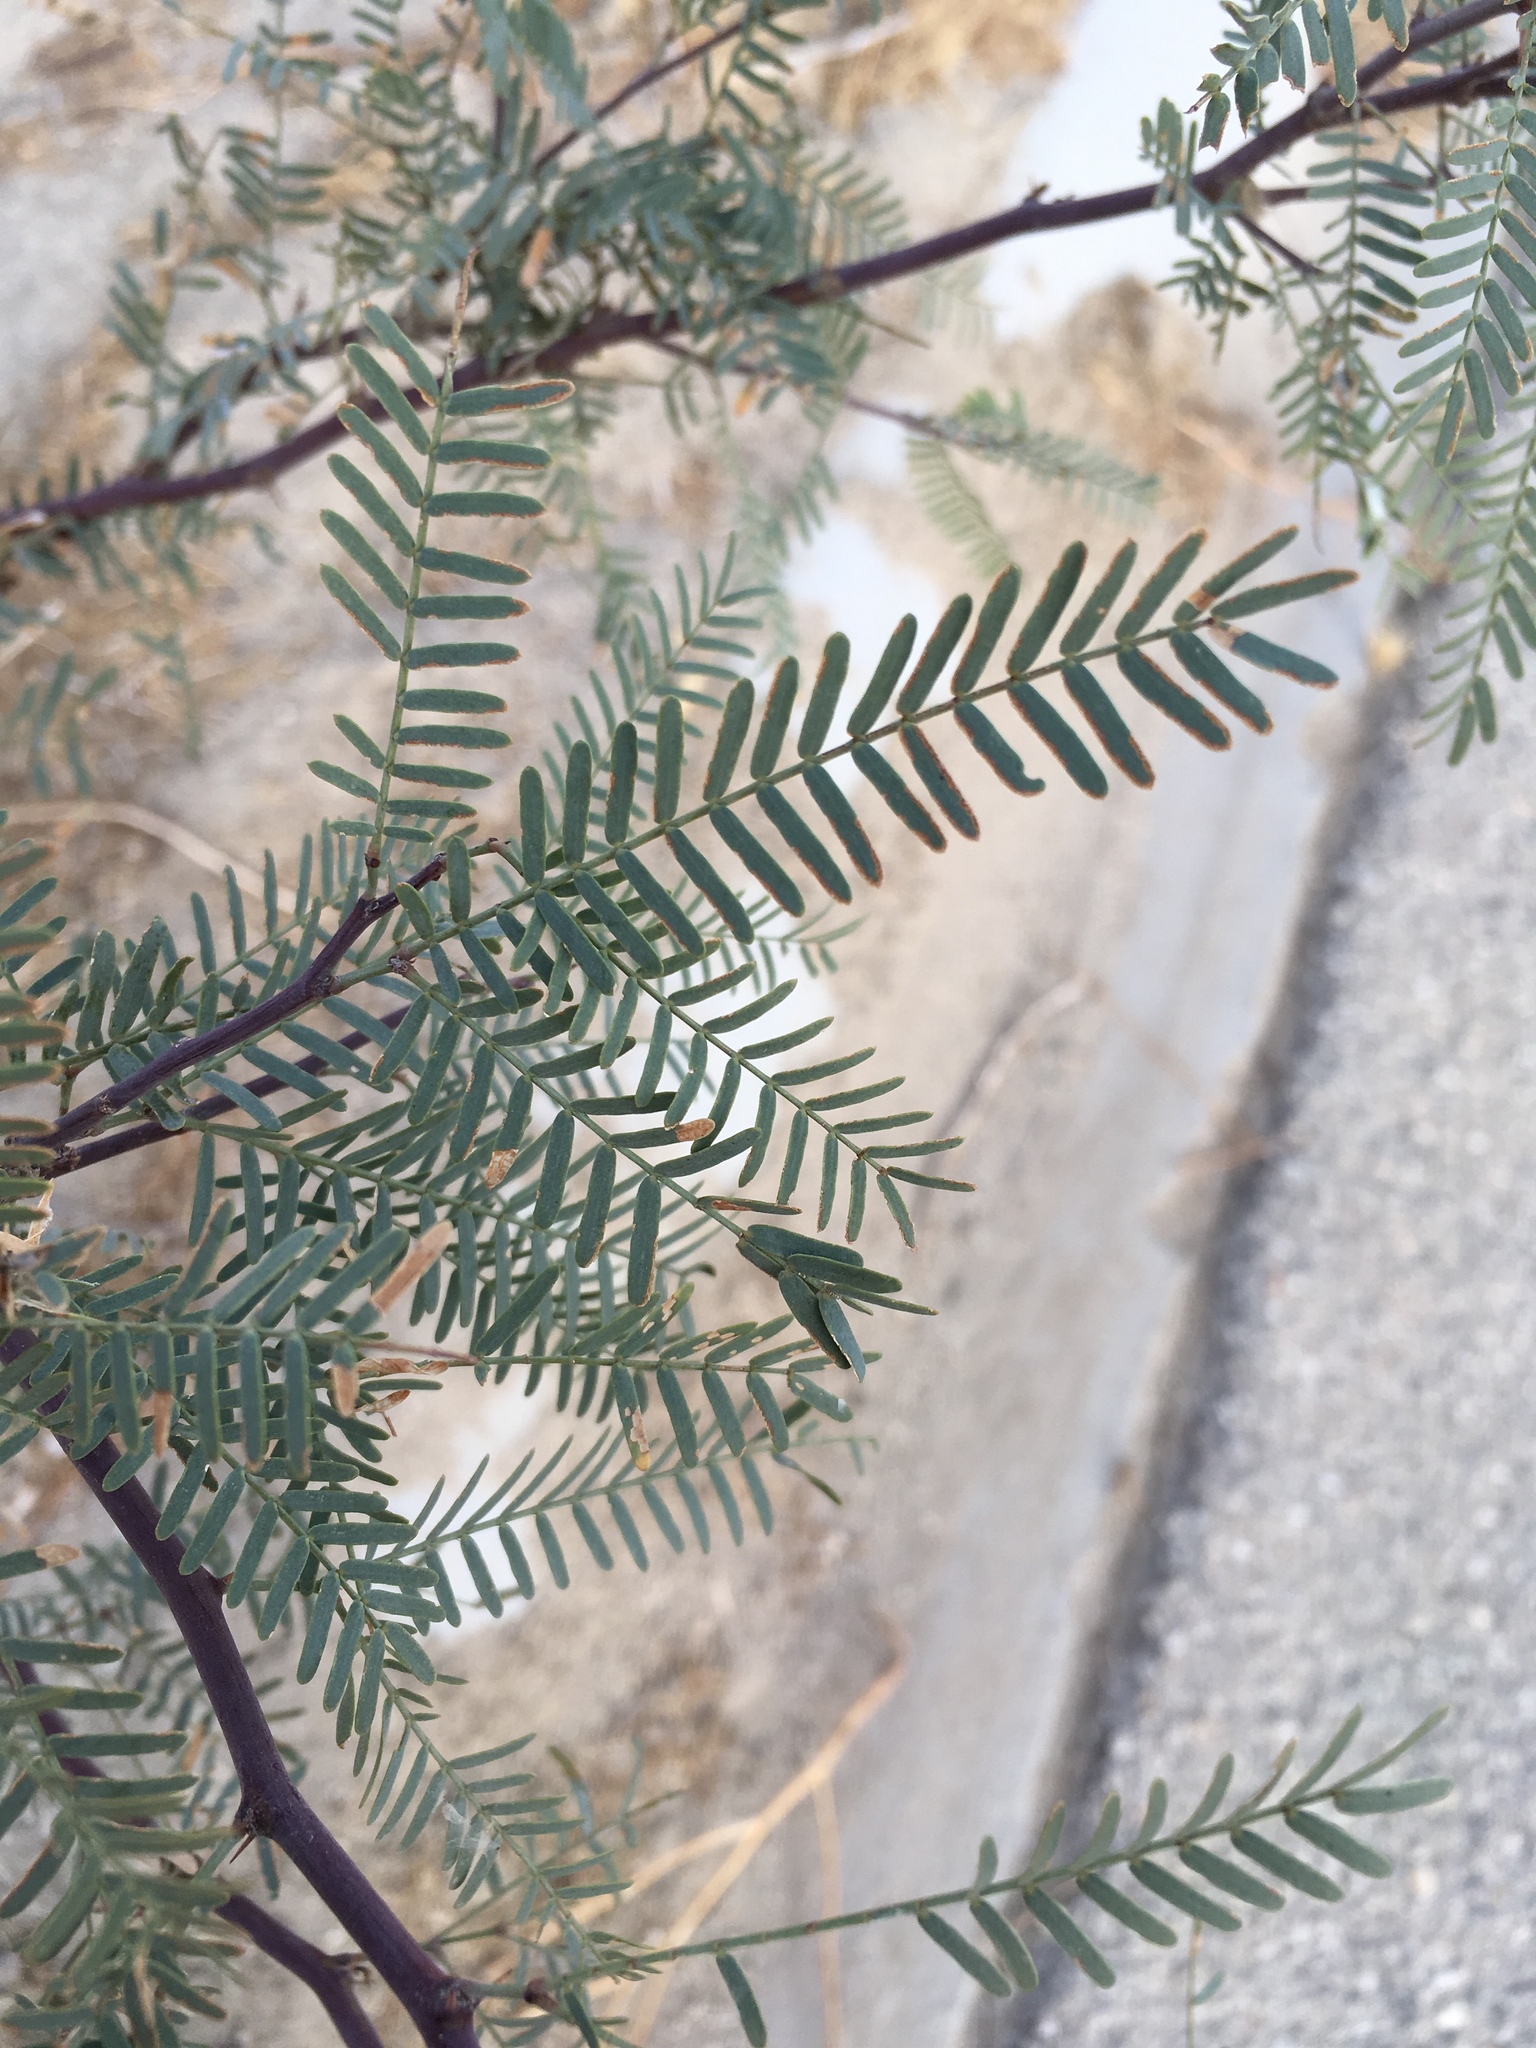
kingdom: Plantae
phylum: Tracheophyta
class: Magnoliopsida
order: Fabales
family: Fabaceae
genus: Prosopis
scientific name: Prosopis pubescens
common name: Screw-bean
